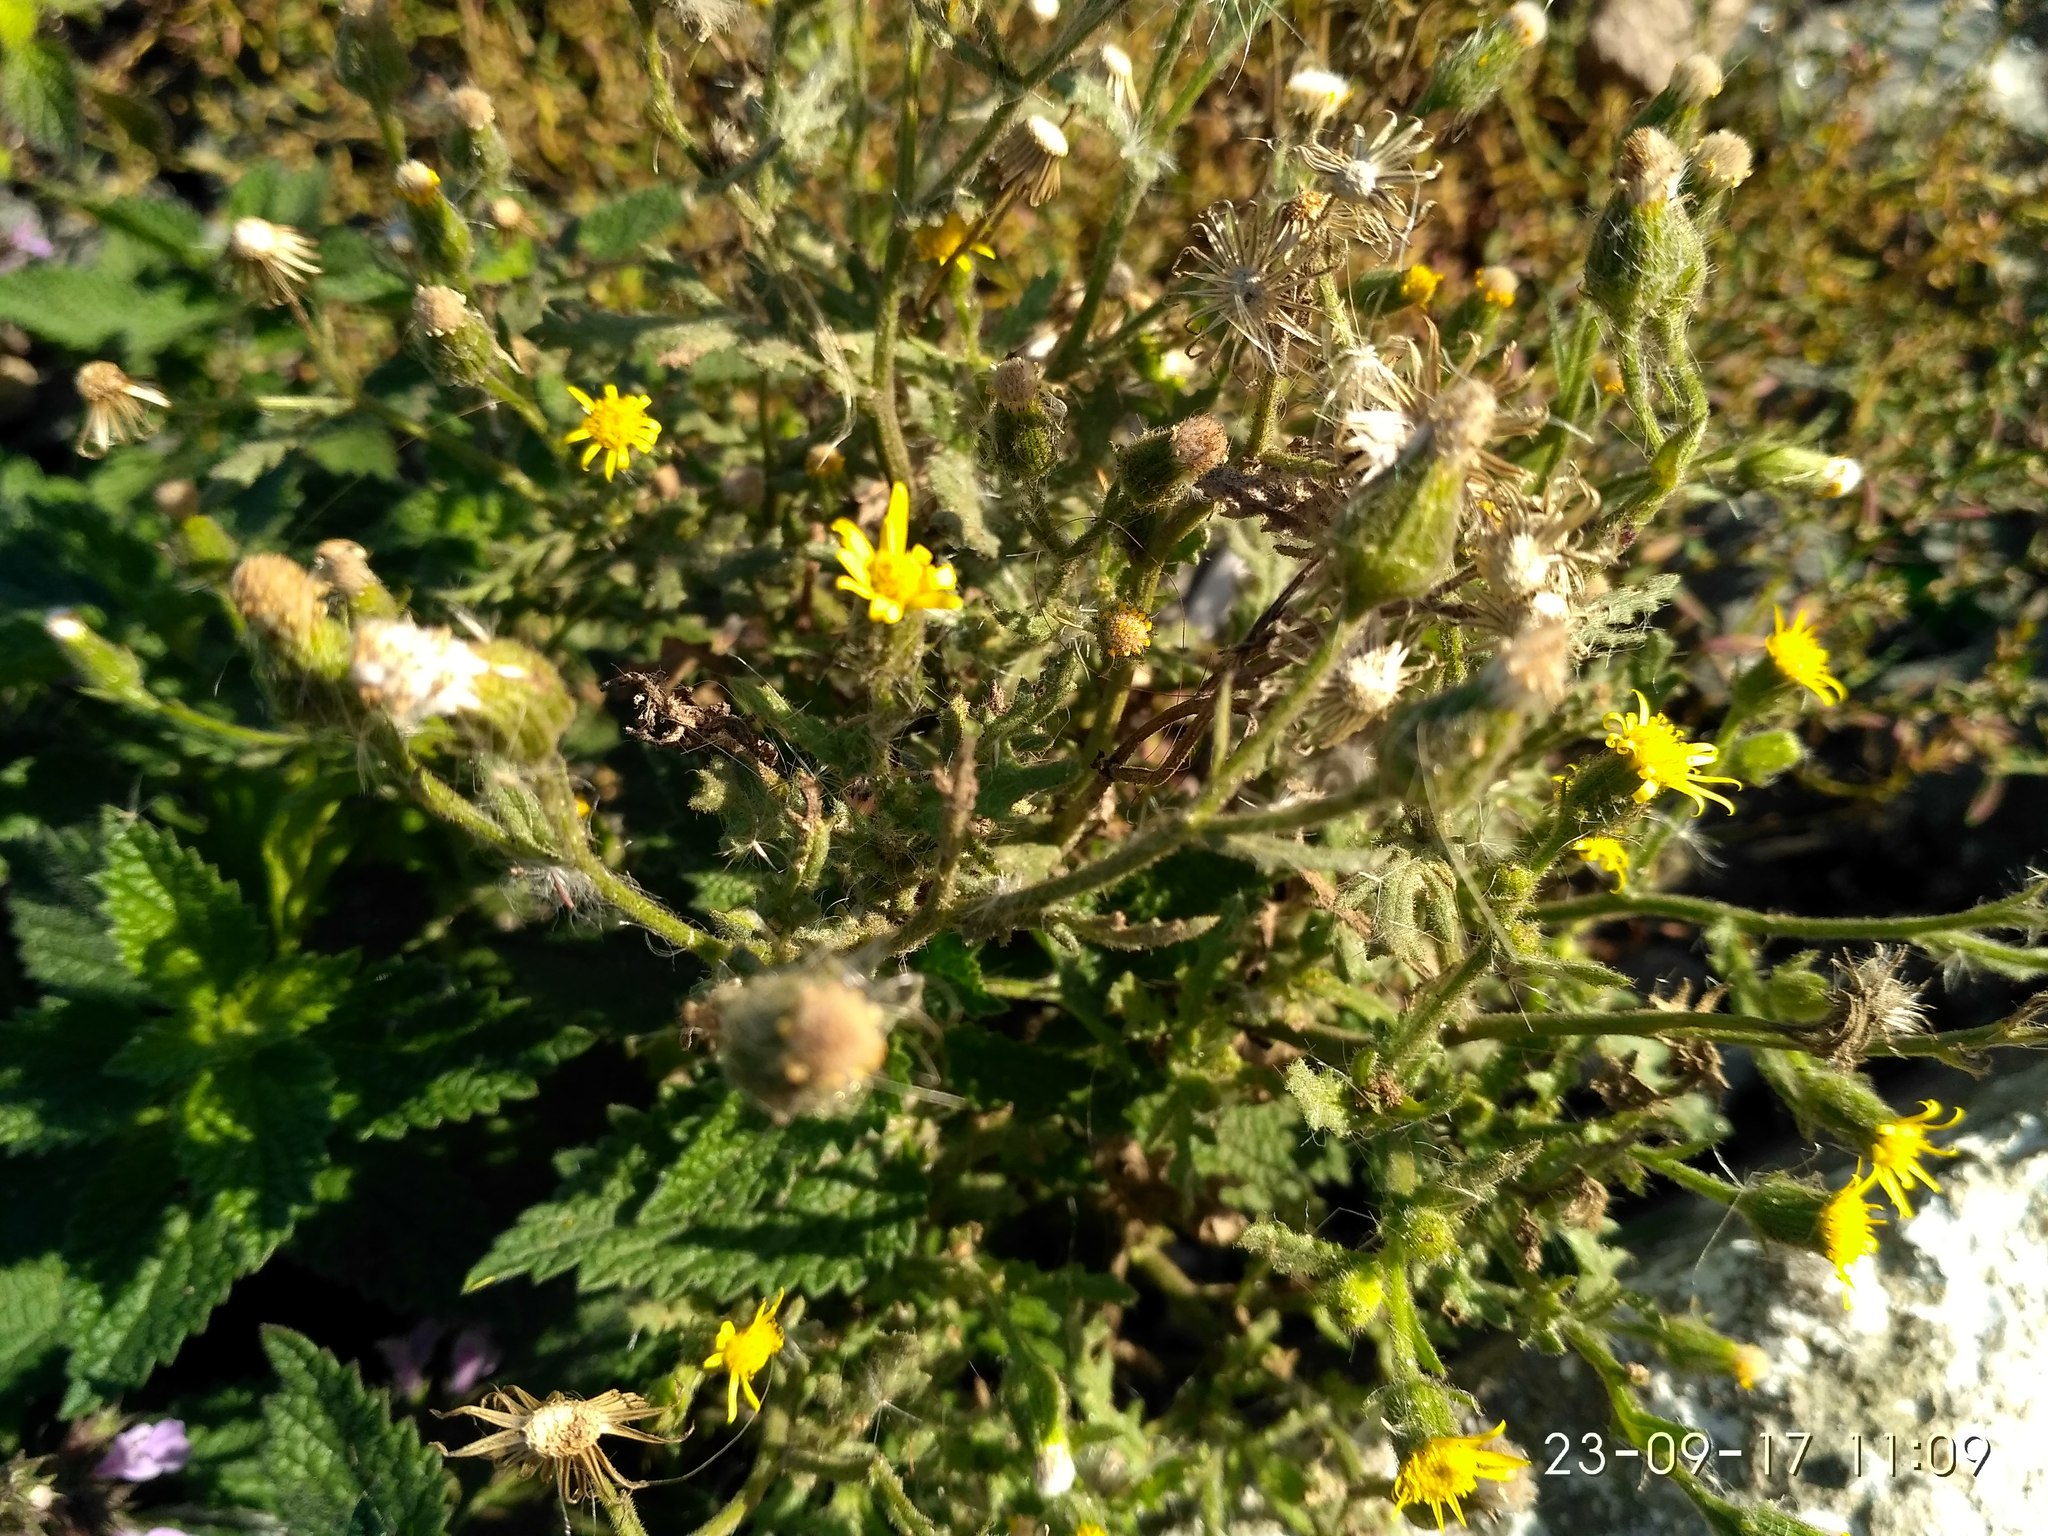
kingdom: Plantae
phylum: Tracheophyta
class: Magnoliopsida
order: Asterales
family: Asteraceae
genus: Senecio
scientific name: Senecio viscosus
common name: Sticky groundsel
